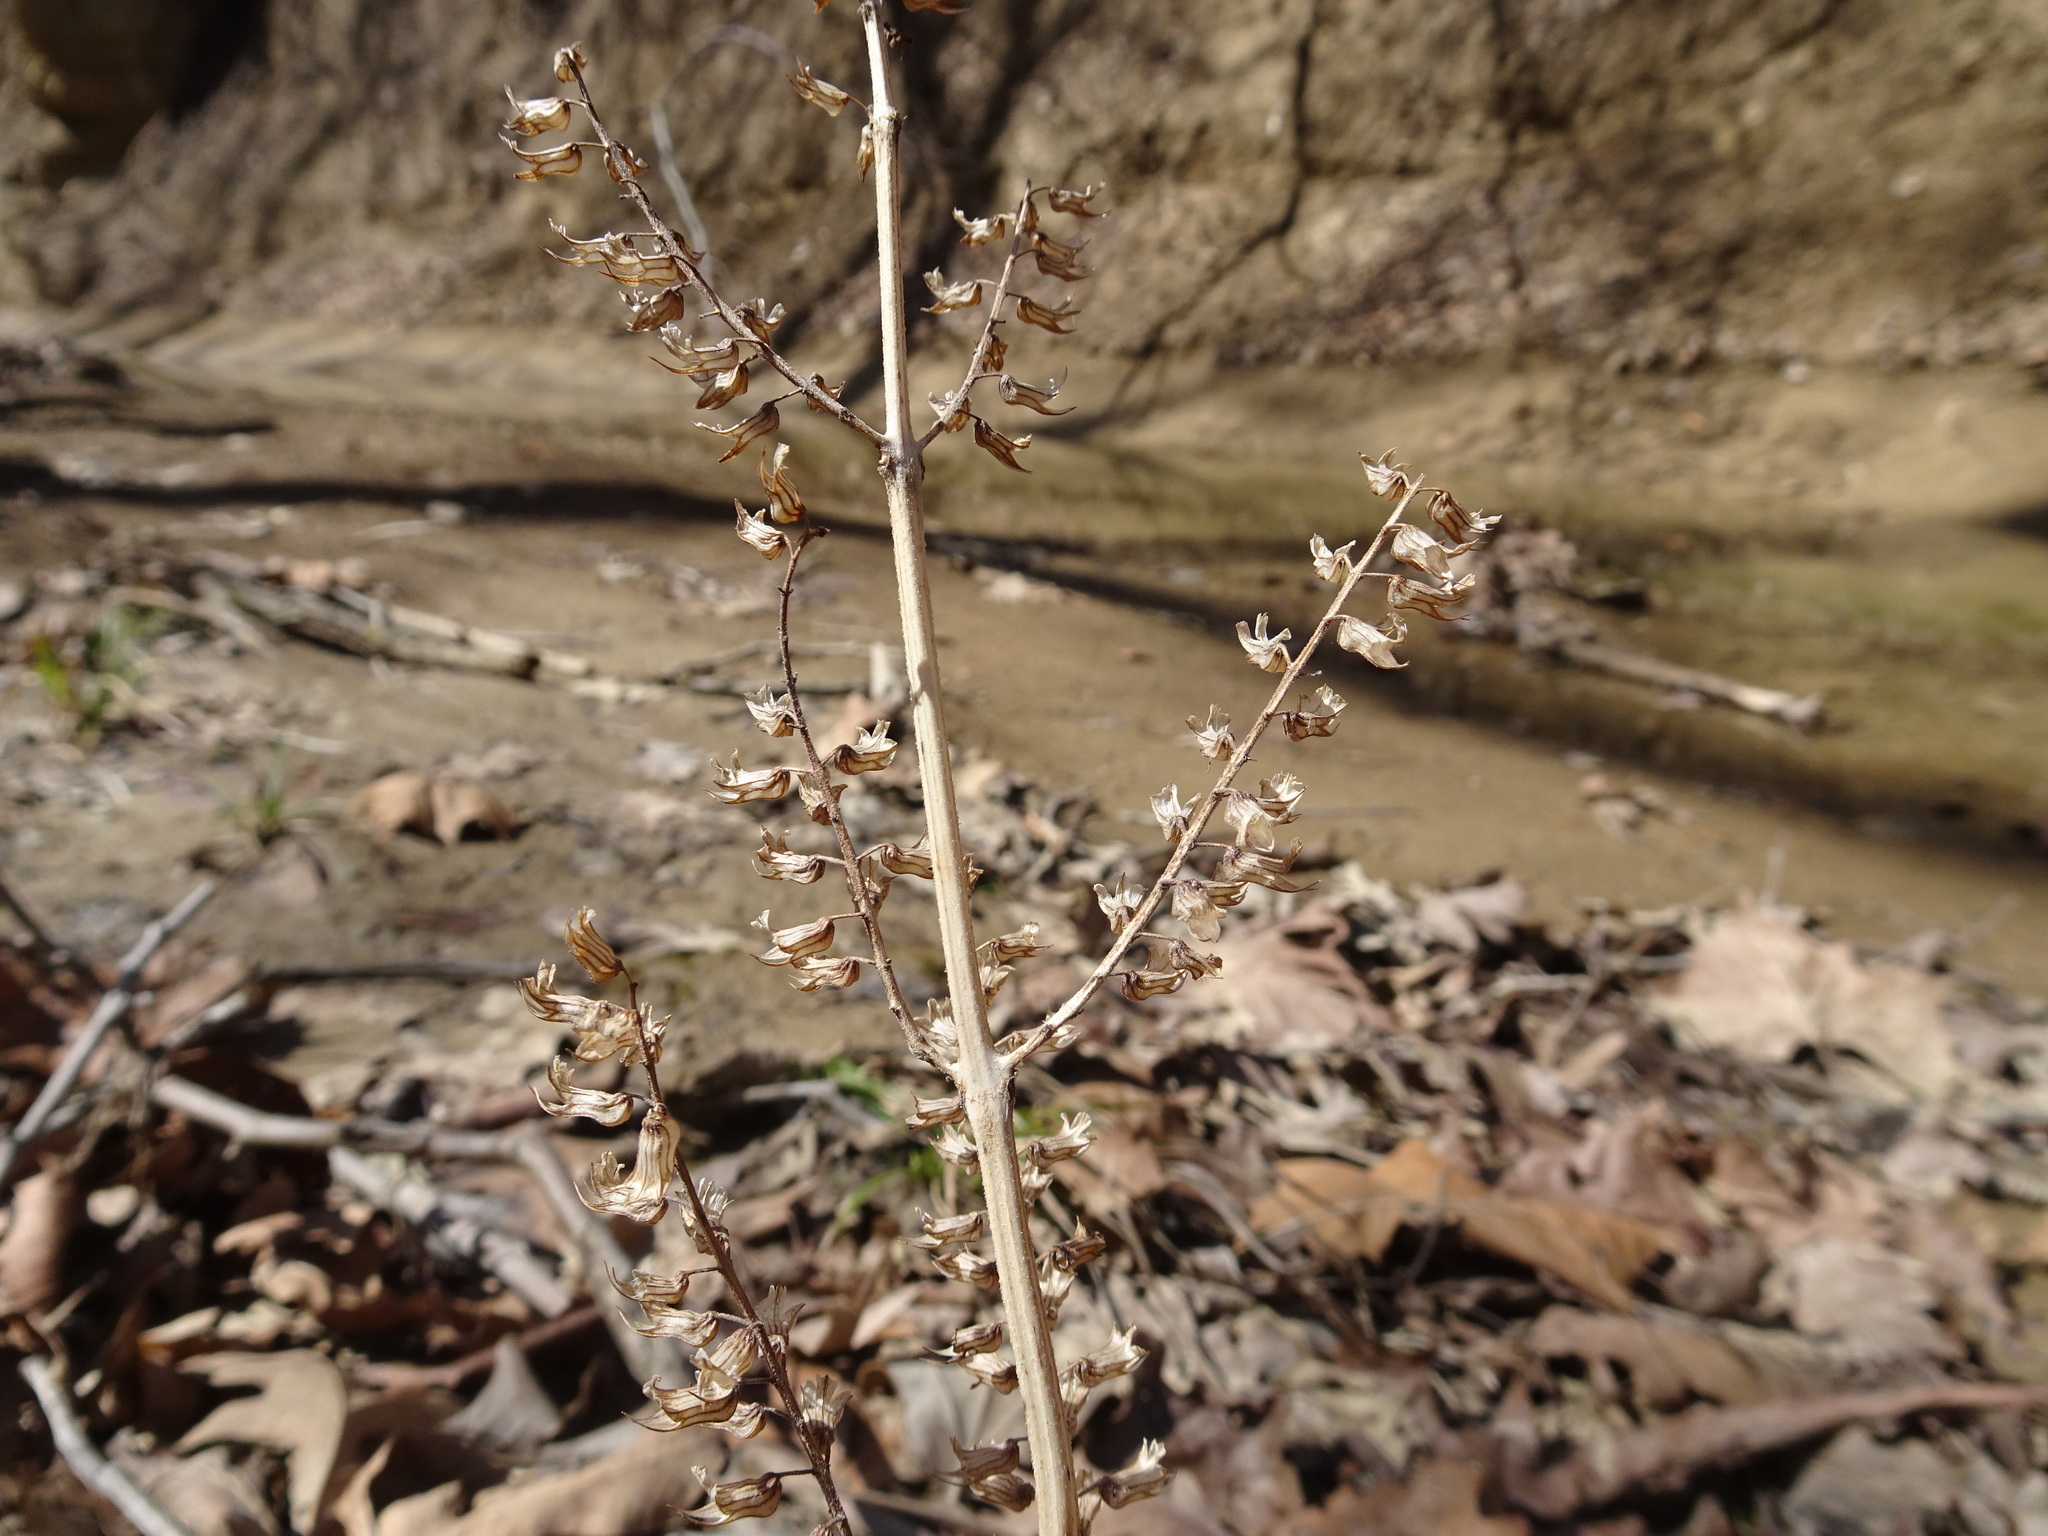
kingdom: Plantae
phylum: Tracheophyta
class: Magnoliopsida
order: Lamiales
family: Lamiaceae
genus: Perilla
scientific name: Perilla frutescens
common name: Perilla
